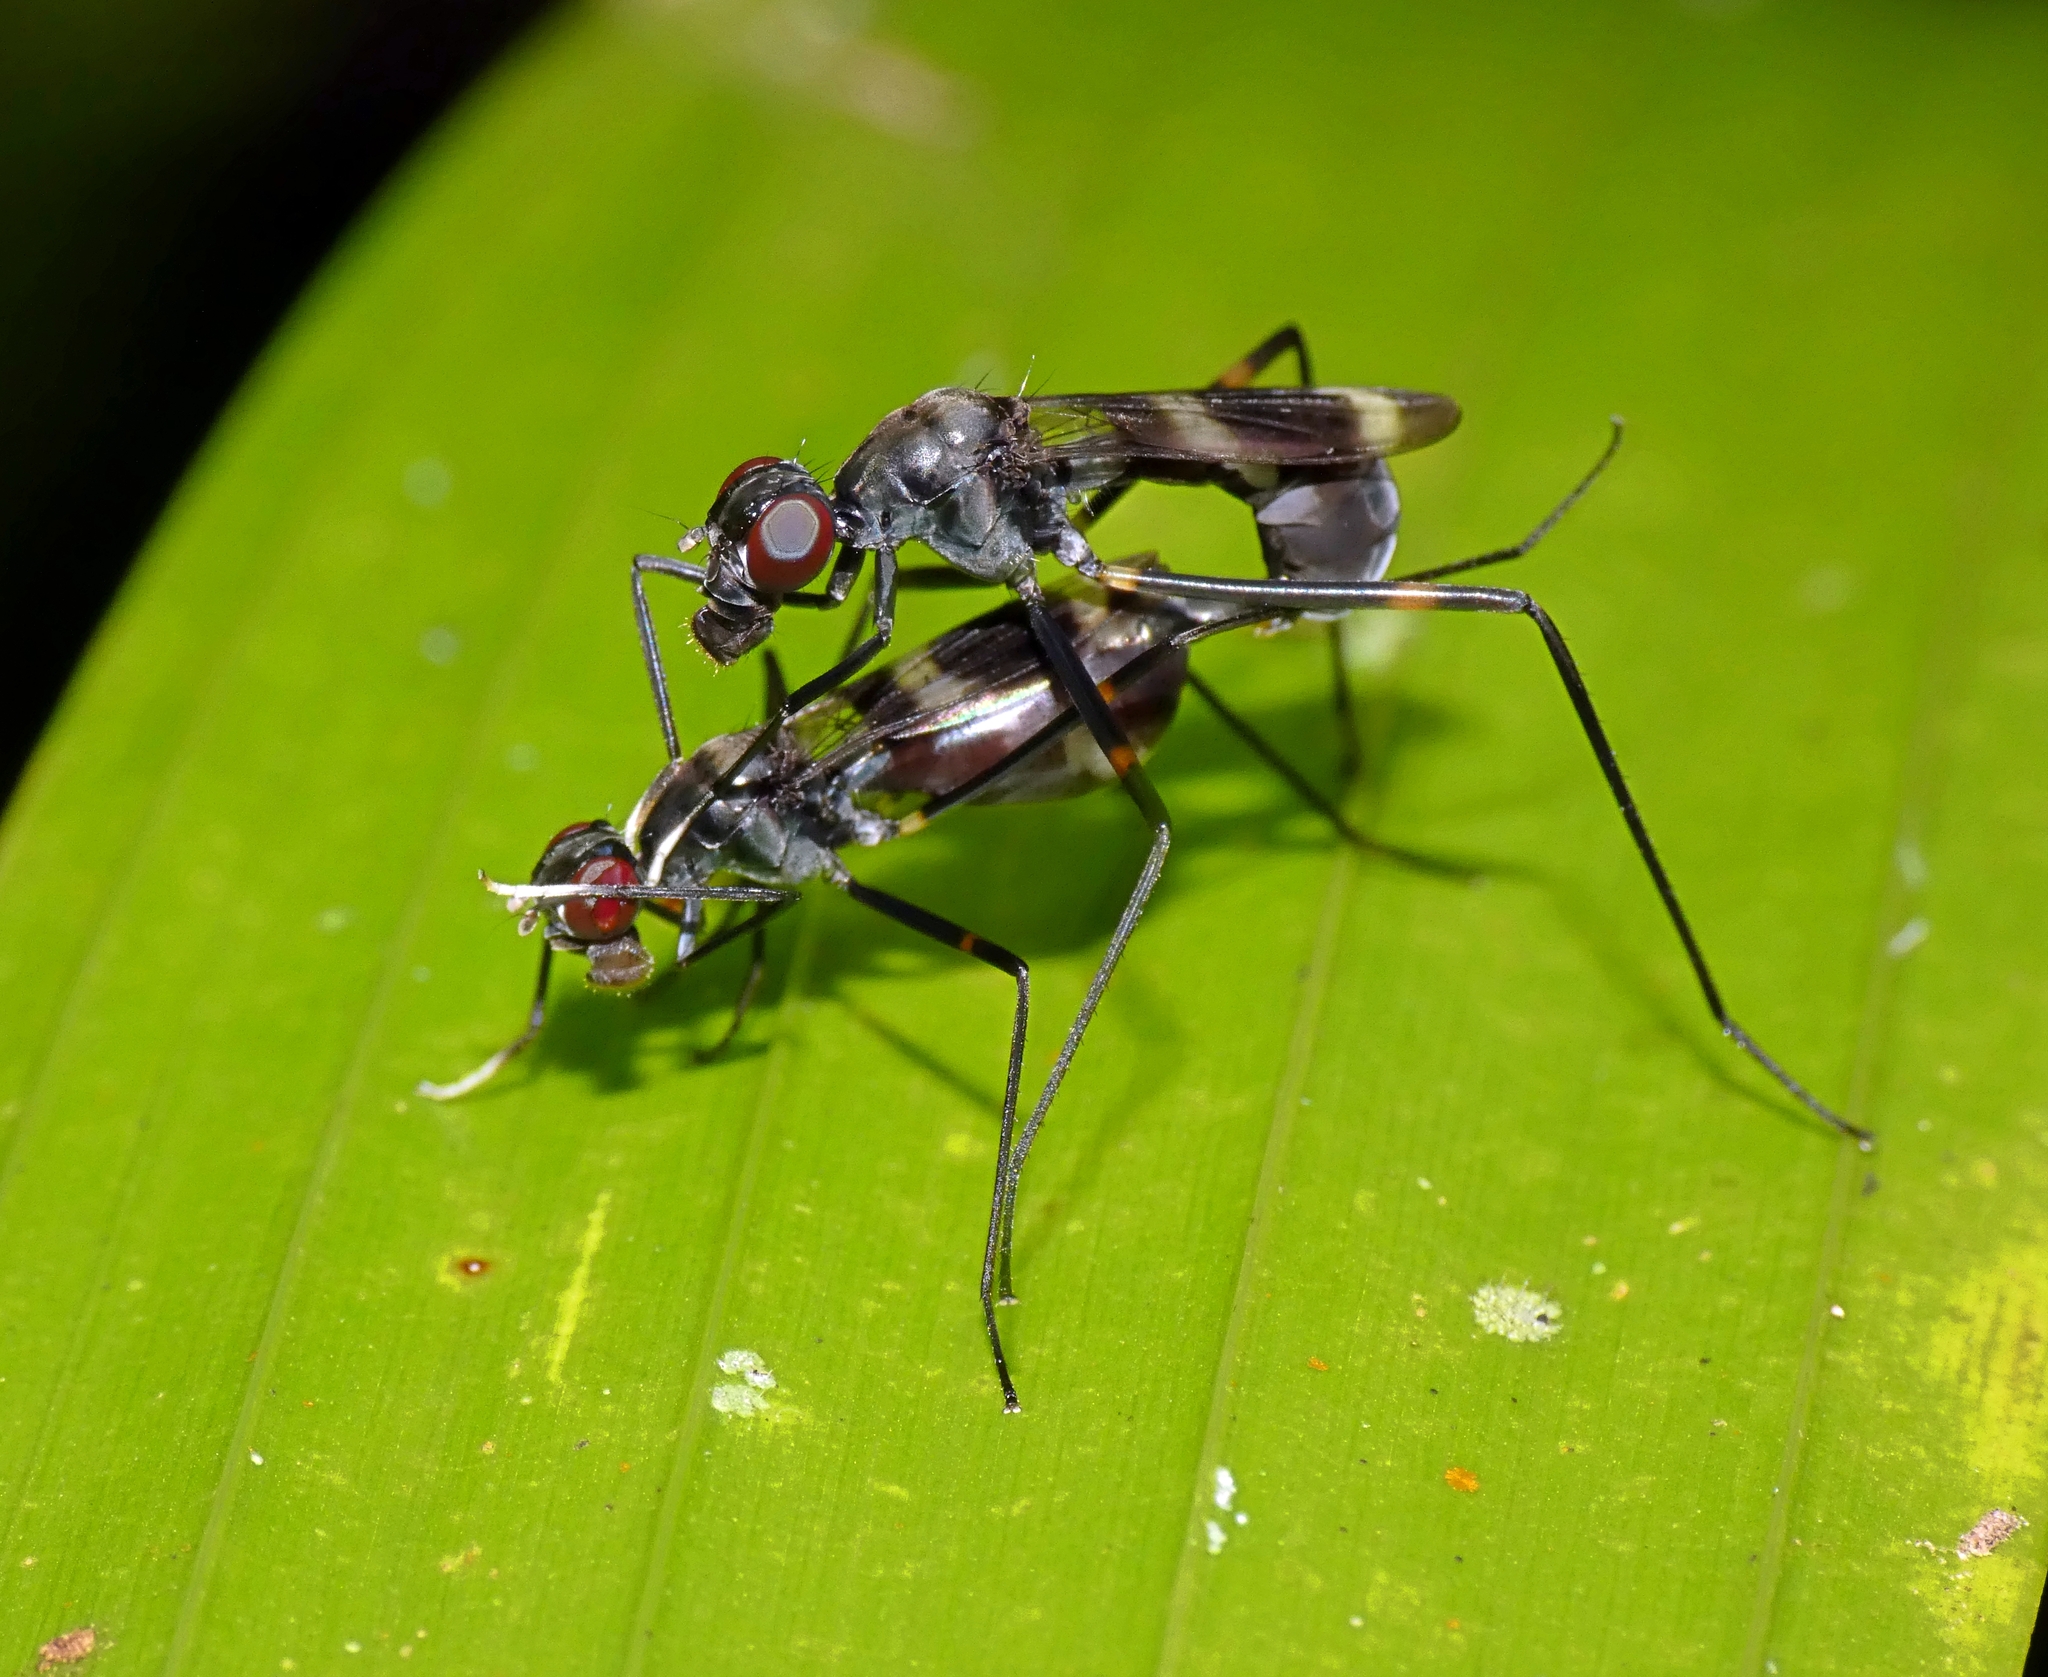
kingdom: Animalia
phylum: Arthropoda
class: Insecta
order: Diptera
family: Micropezidae
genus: Mimegralla
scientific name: Mimegralla australica
